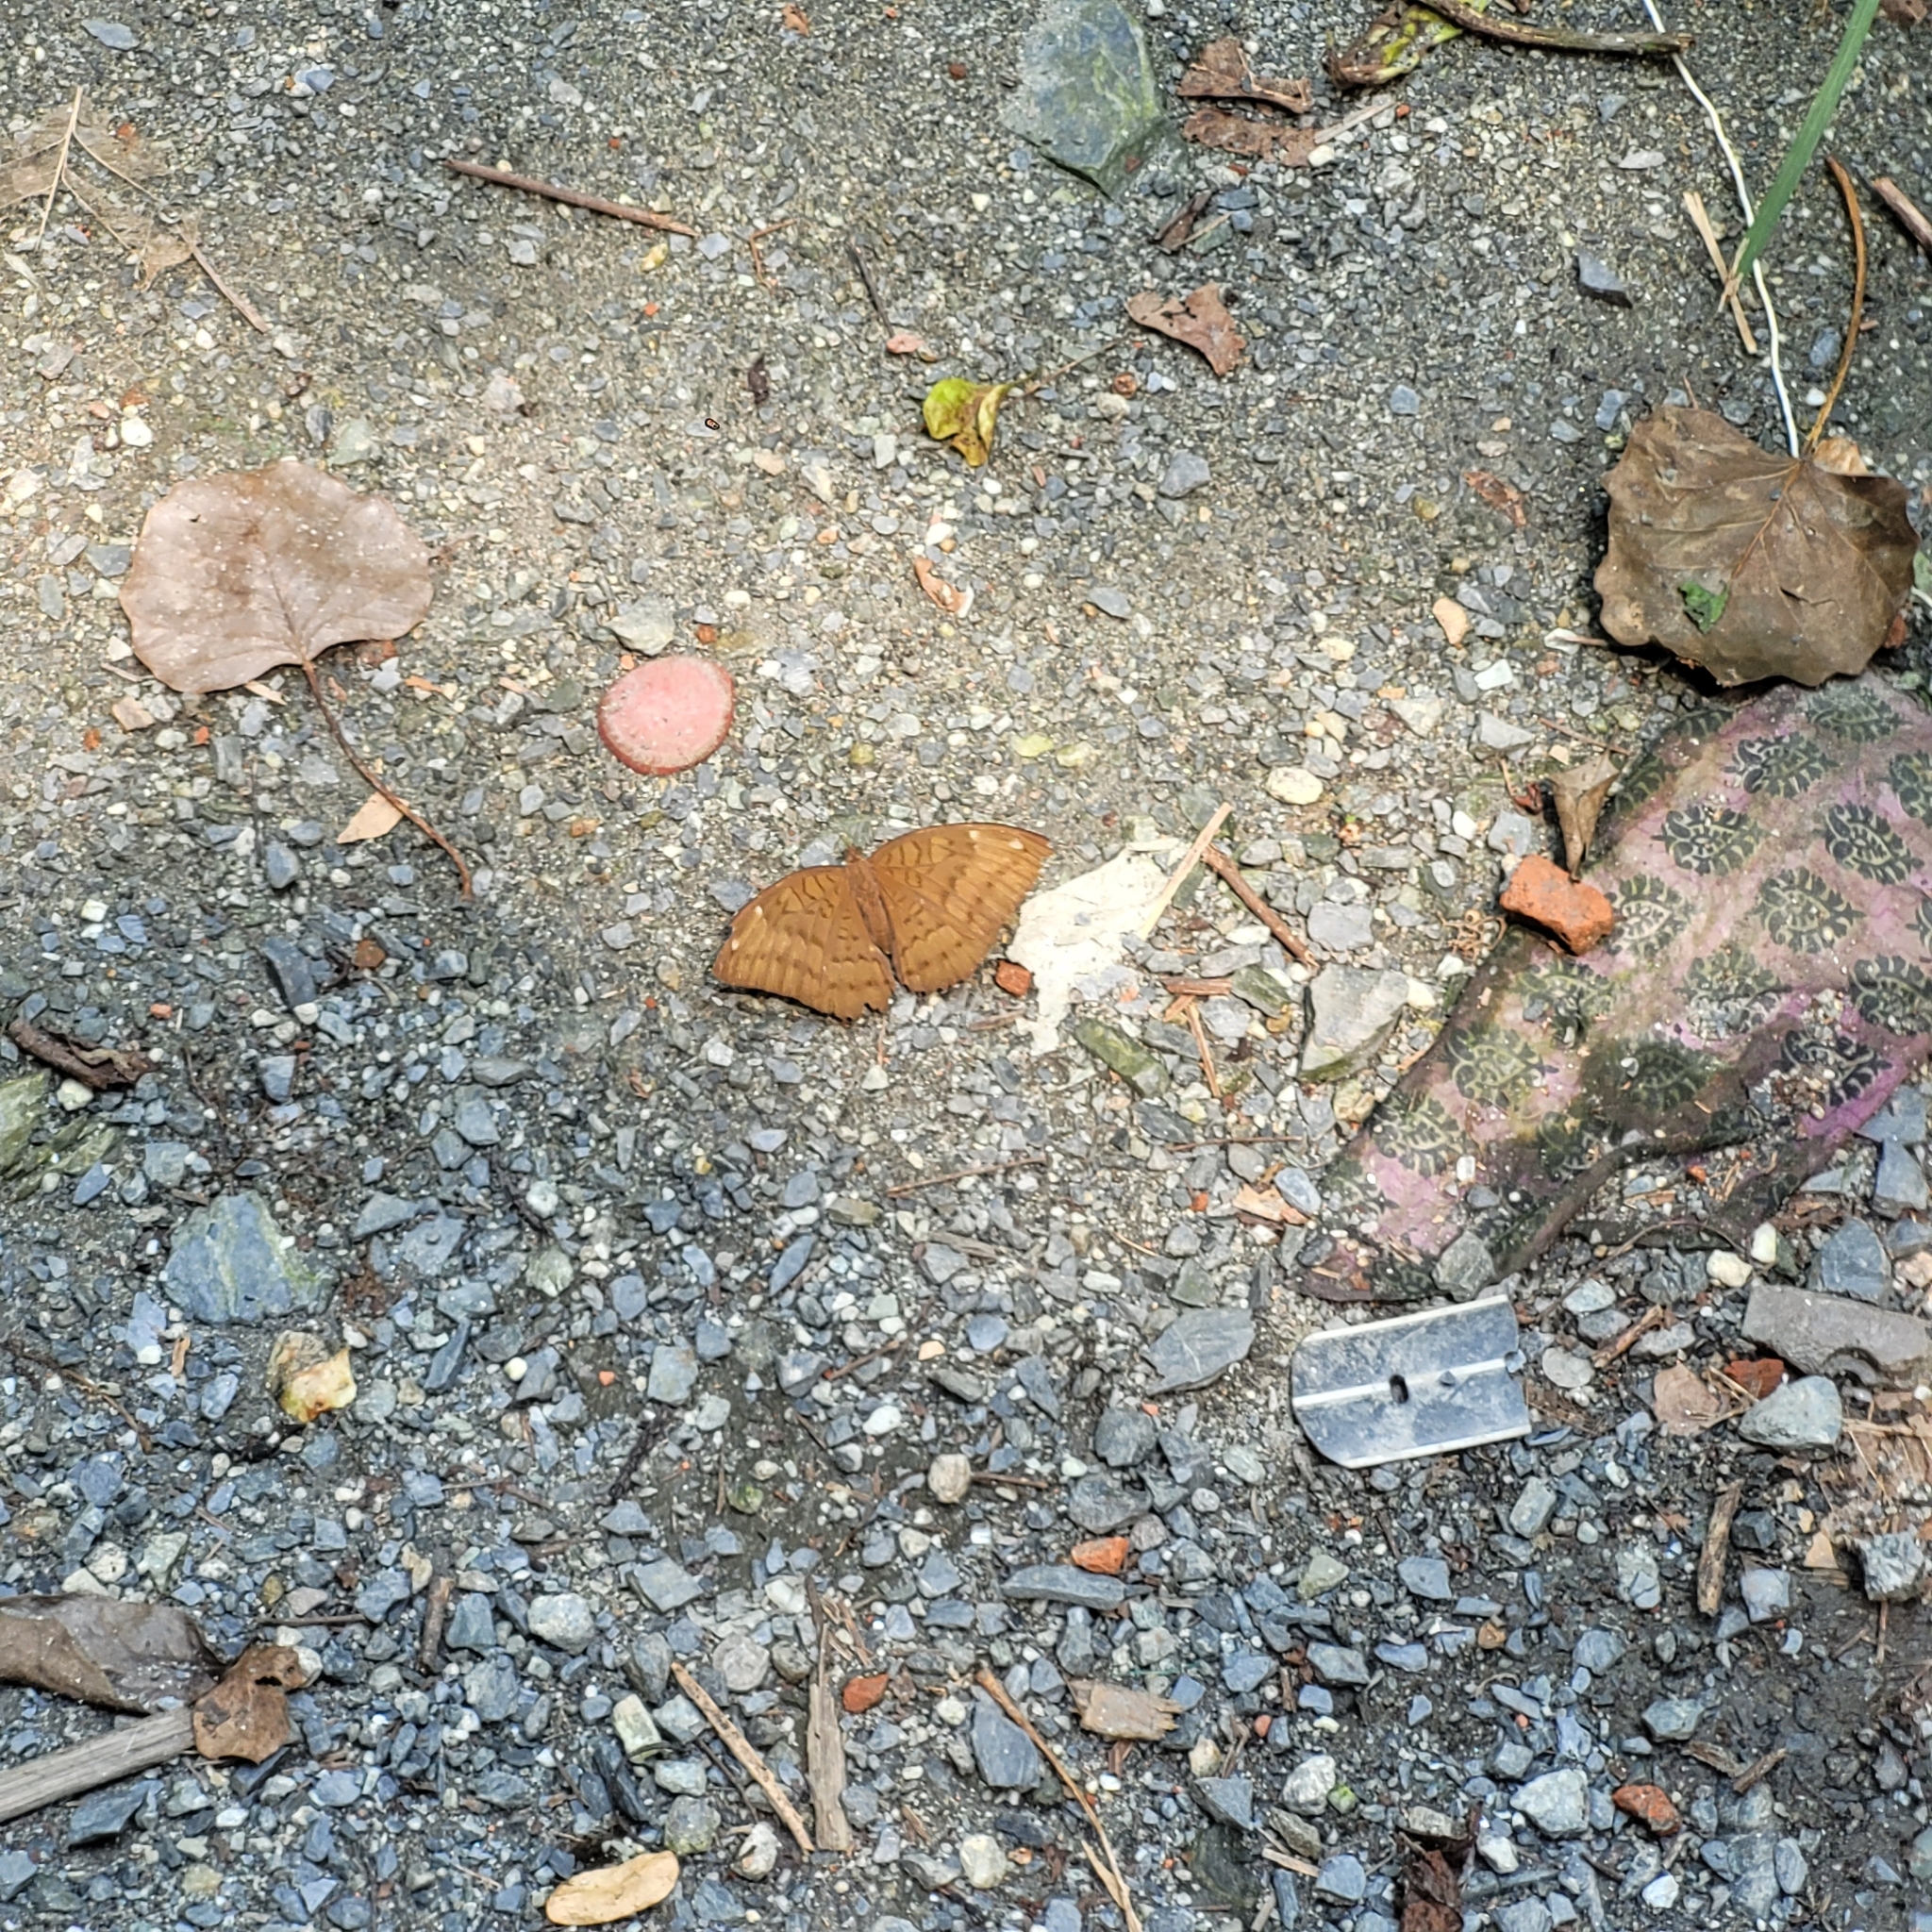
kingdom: Animalia
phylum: Arthropoda
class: Insecta
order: Lepidoptera
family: Nymphalidae
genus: Tanaecia
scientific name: Tanaecia julii
